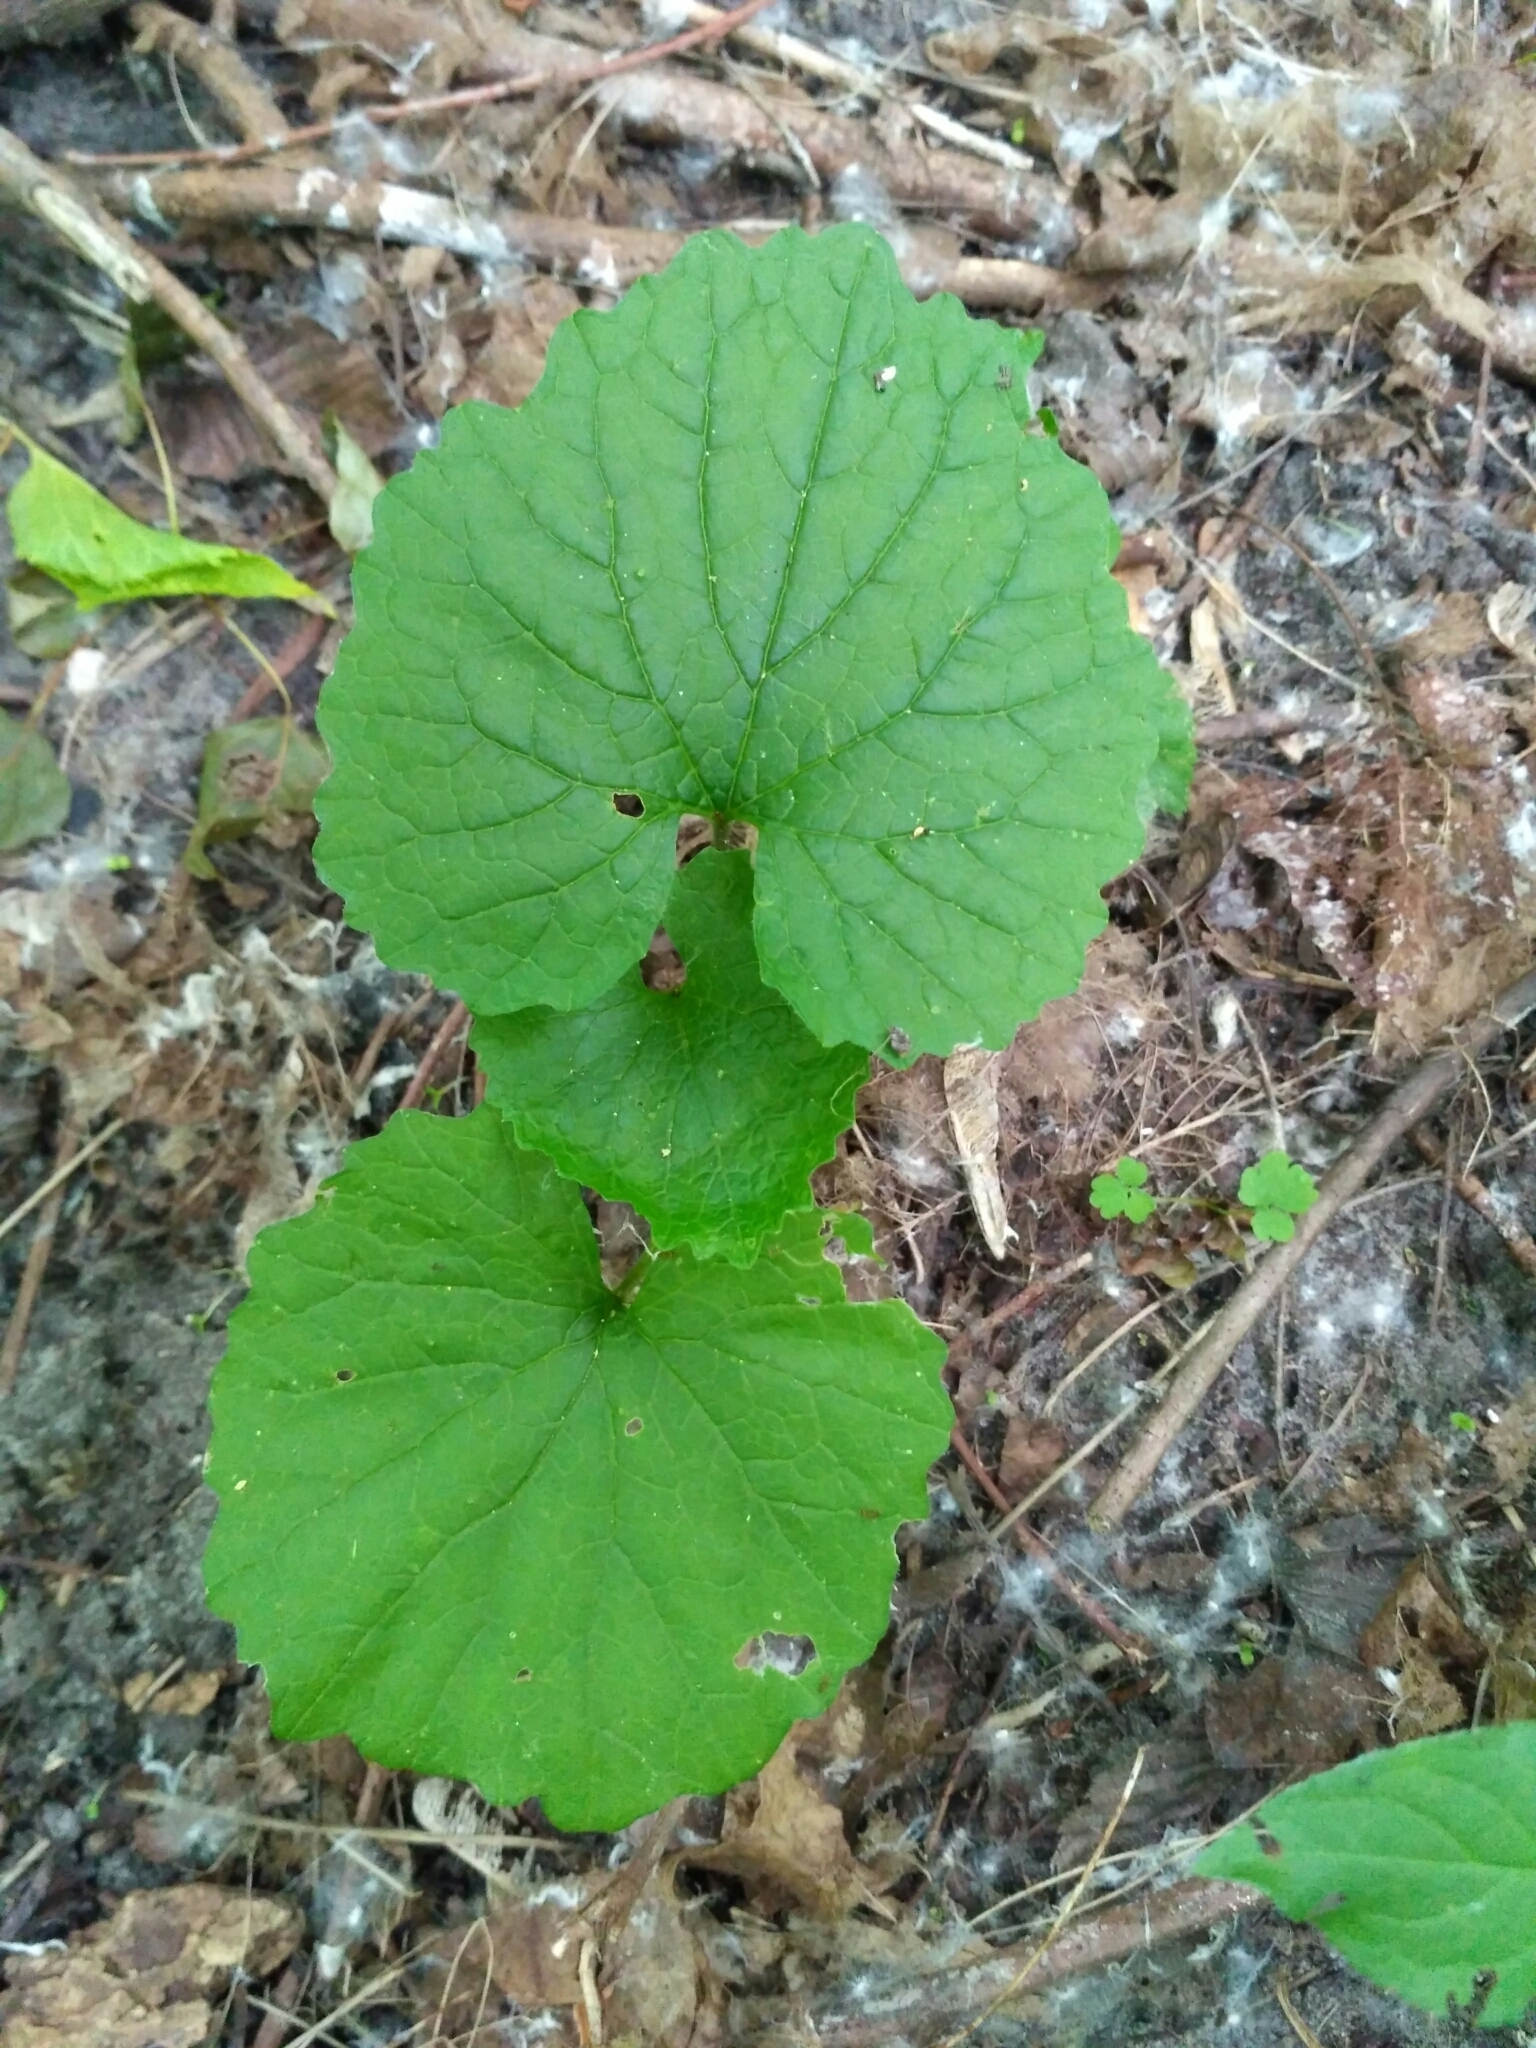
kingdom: Plantae
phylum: Tracheophyta
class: Magnoliopsida
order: Brassicales
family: Brassicaceae
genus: Alliaria
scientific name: Alliaria petiolata
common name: Garlic mustard
